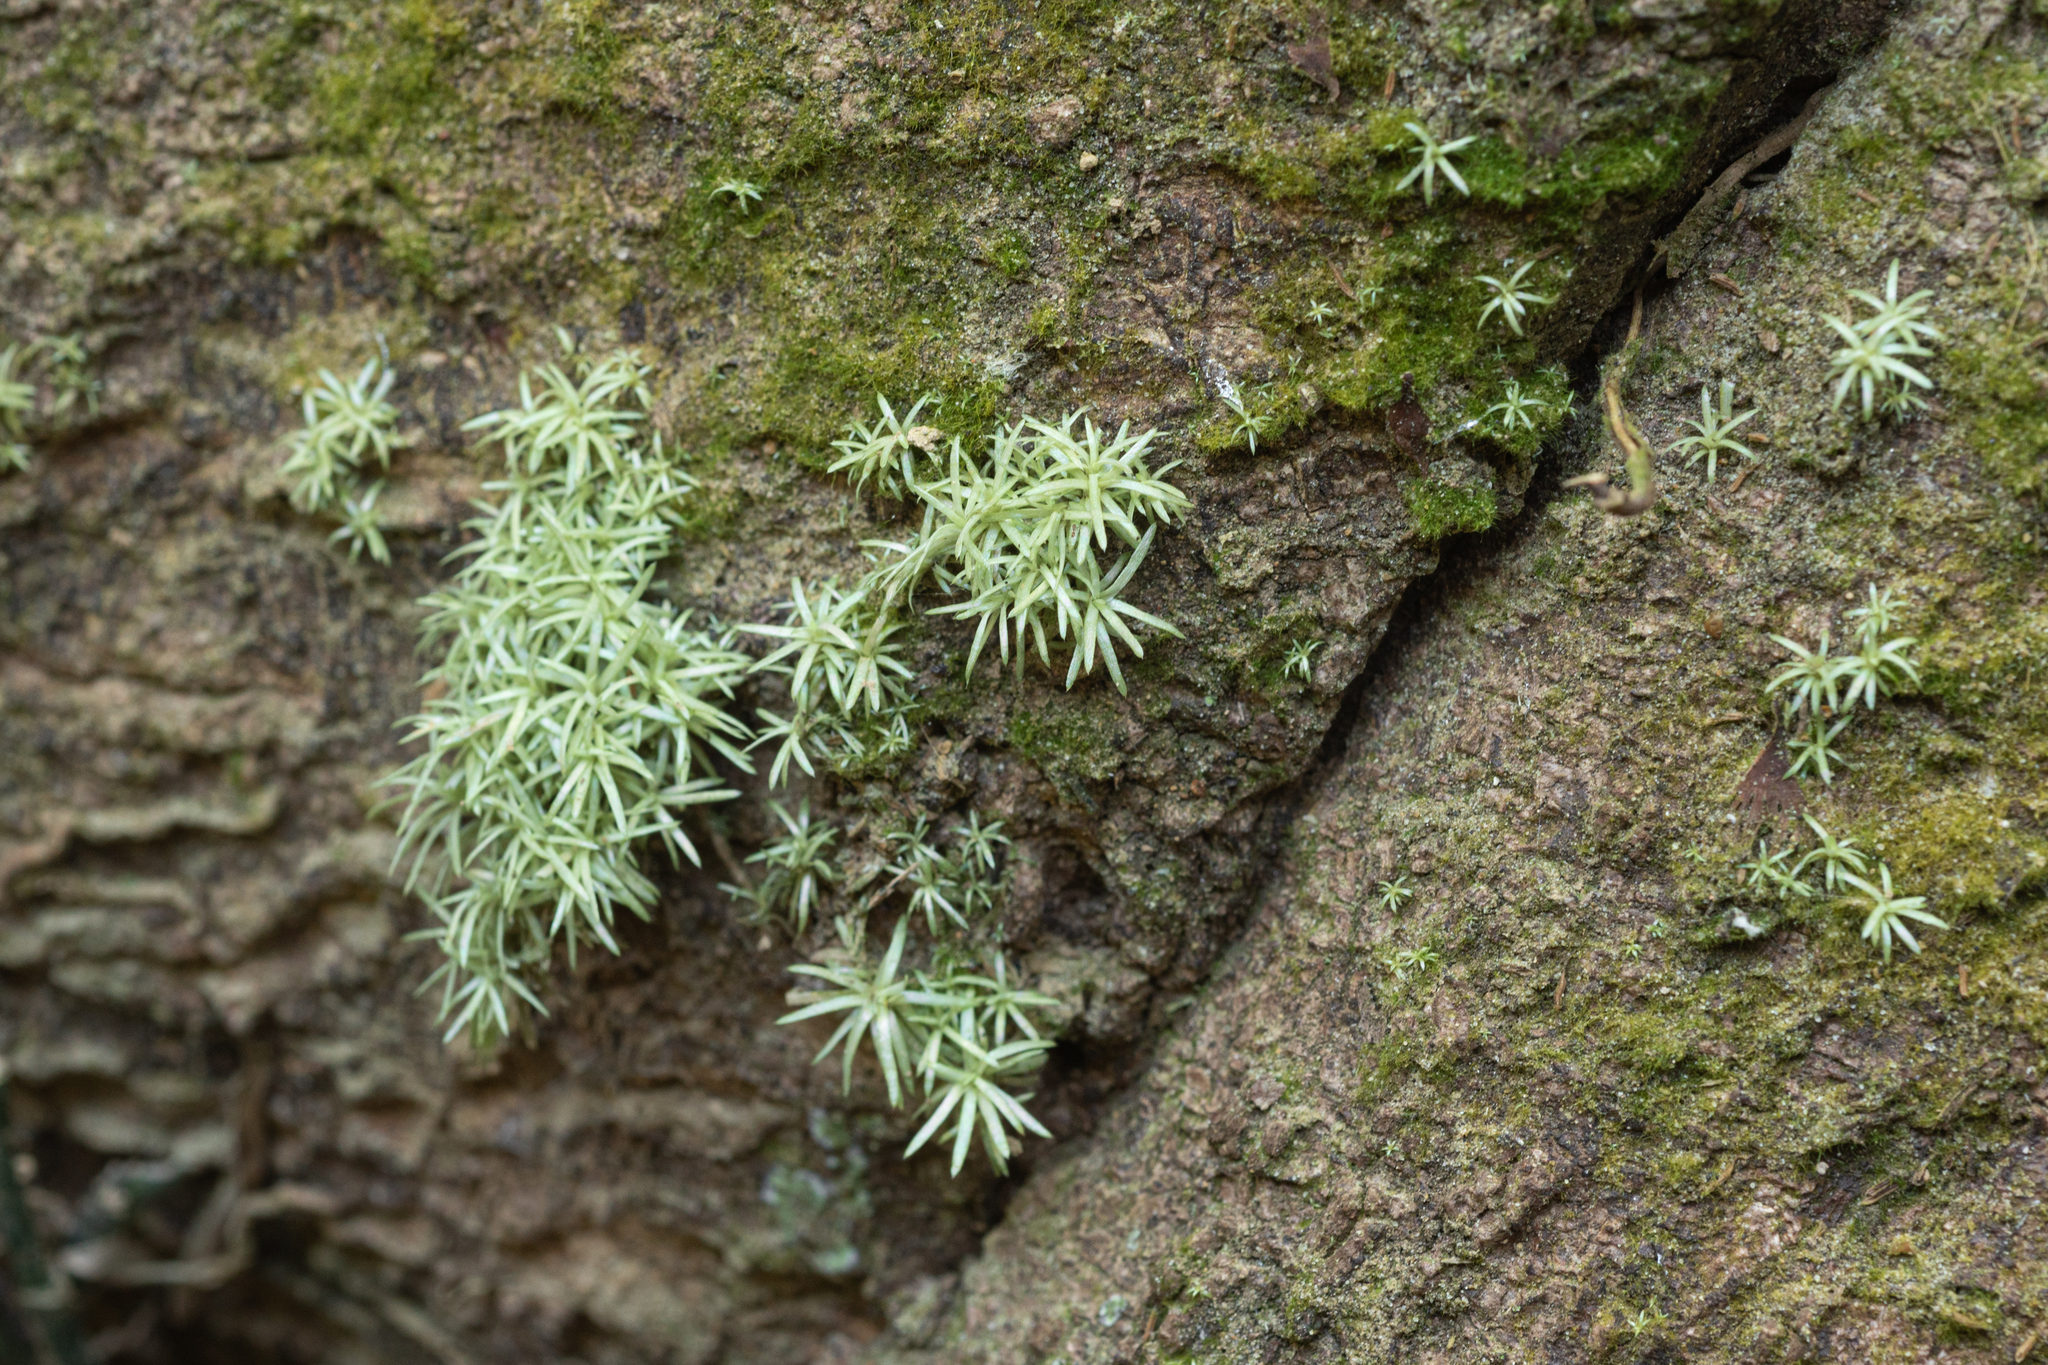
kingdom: Plantae
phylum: Bryophyta
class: Bryopsida
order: Dicranales
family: Octoblepharaceae
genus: Octoblepharum
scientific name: Octoblepharum albidum
